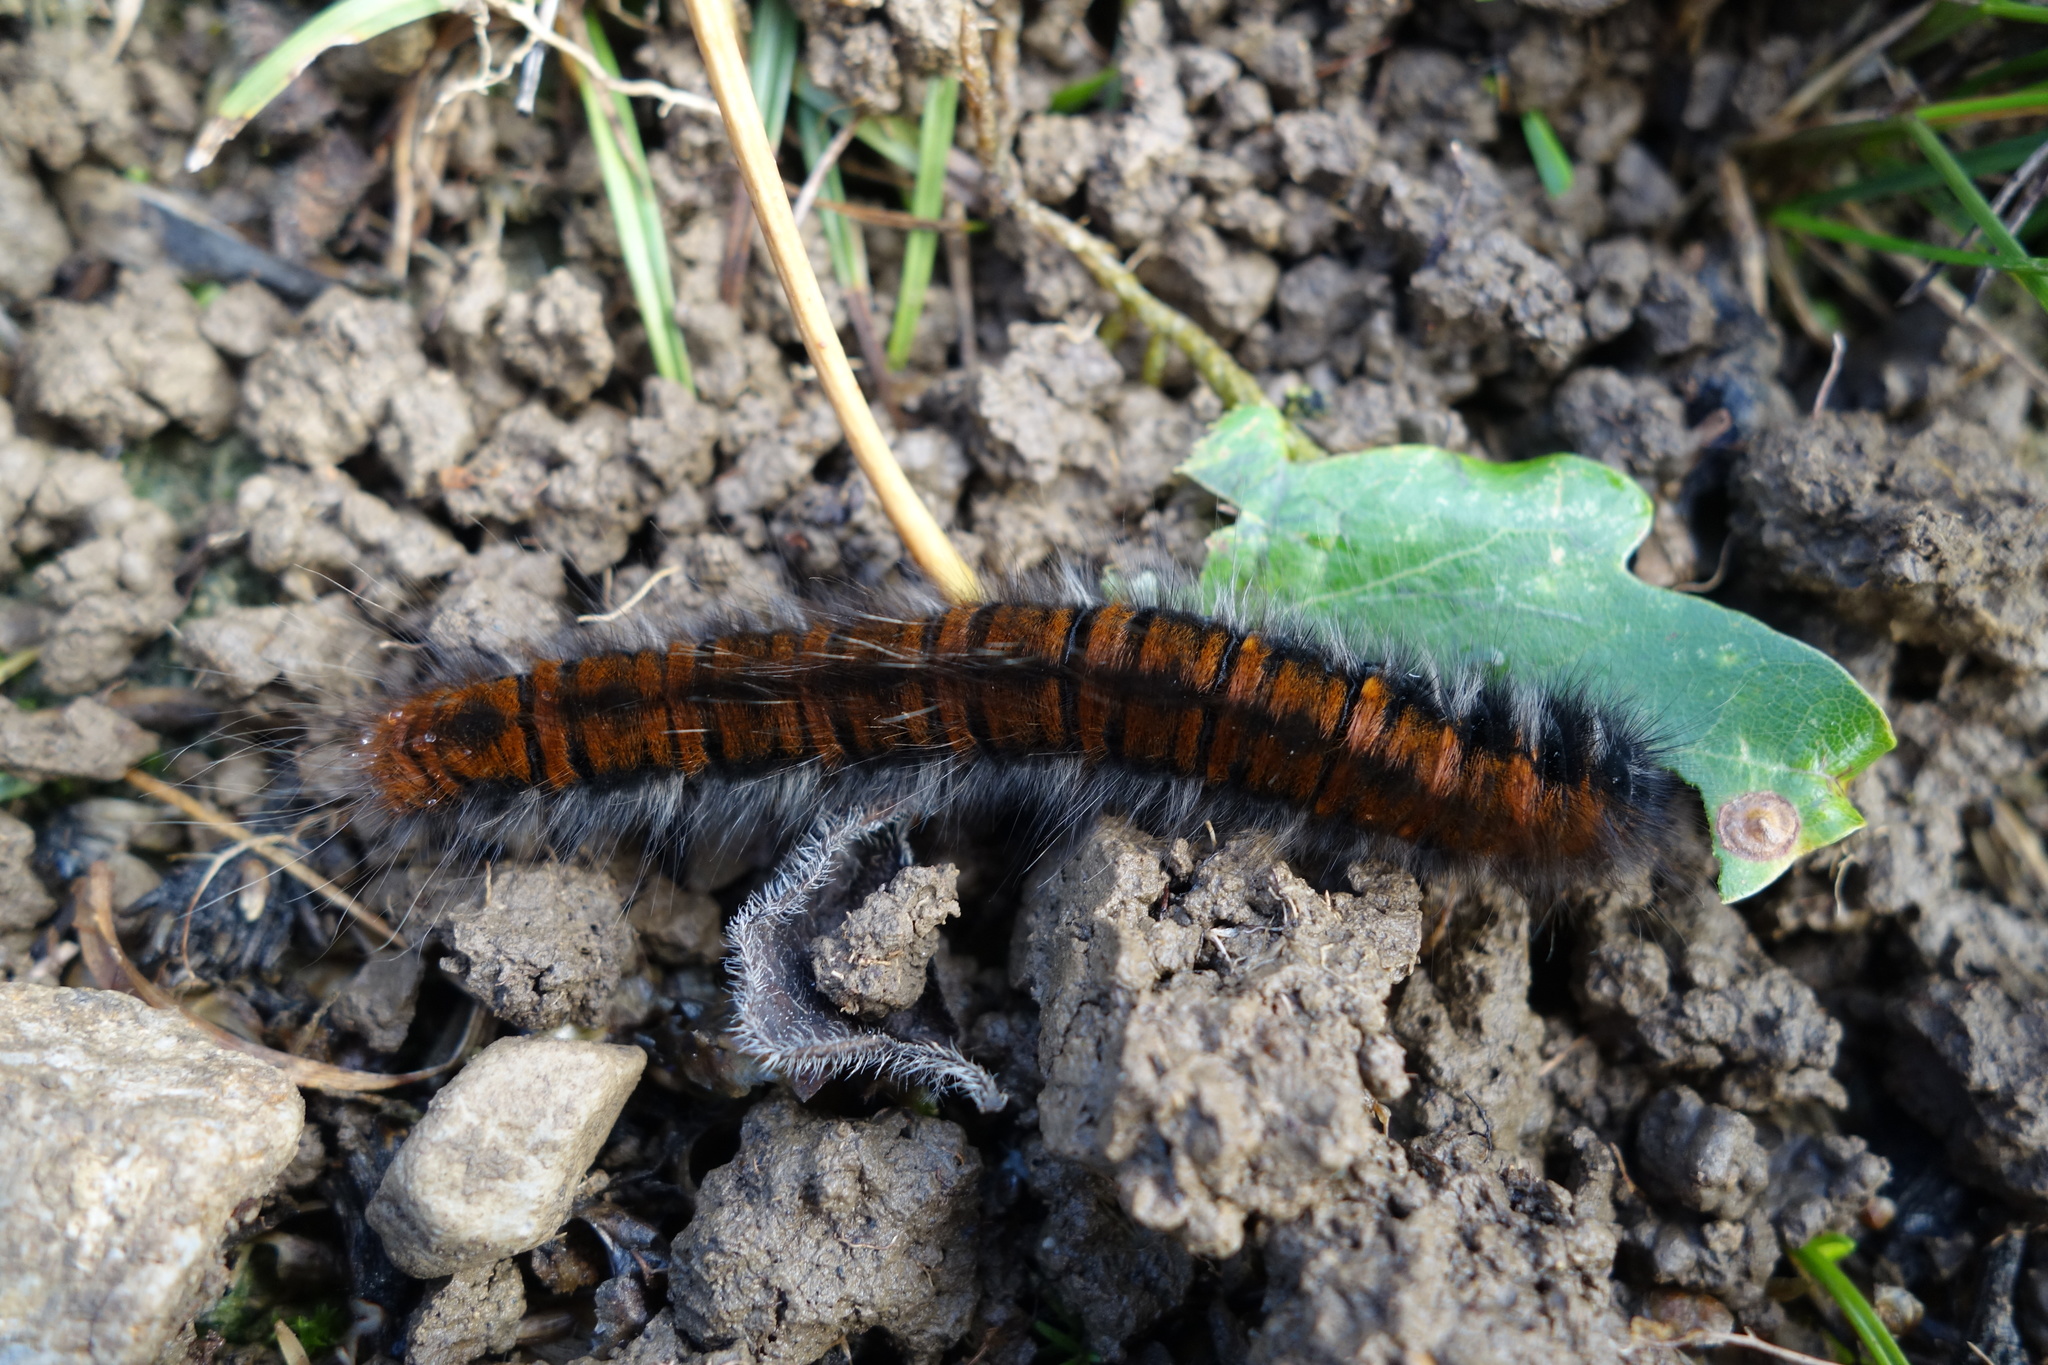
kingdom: Animalia
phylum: Arthropoda
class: Insecta
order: Lepidoptera
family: Lasiocampidae
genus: Macrothylacia
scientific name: Macrothylacia rubi
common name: Fox moth
